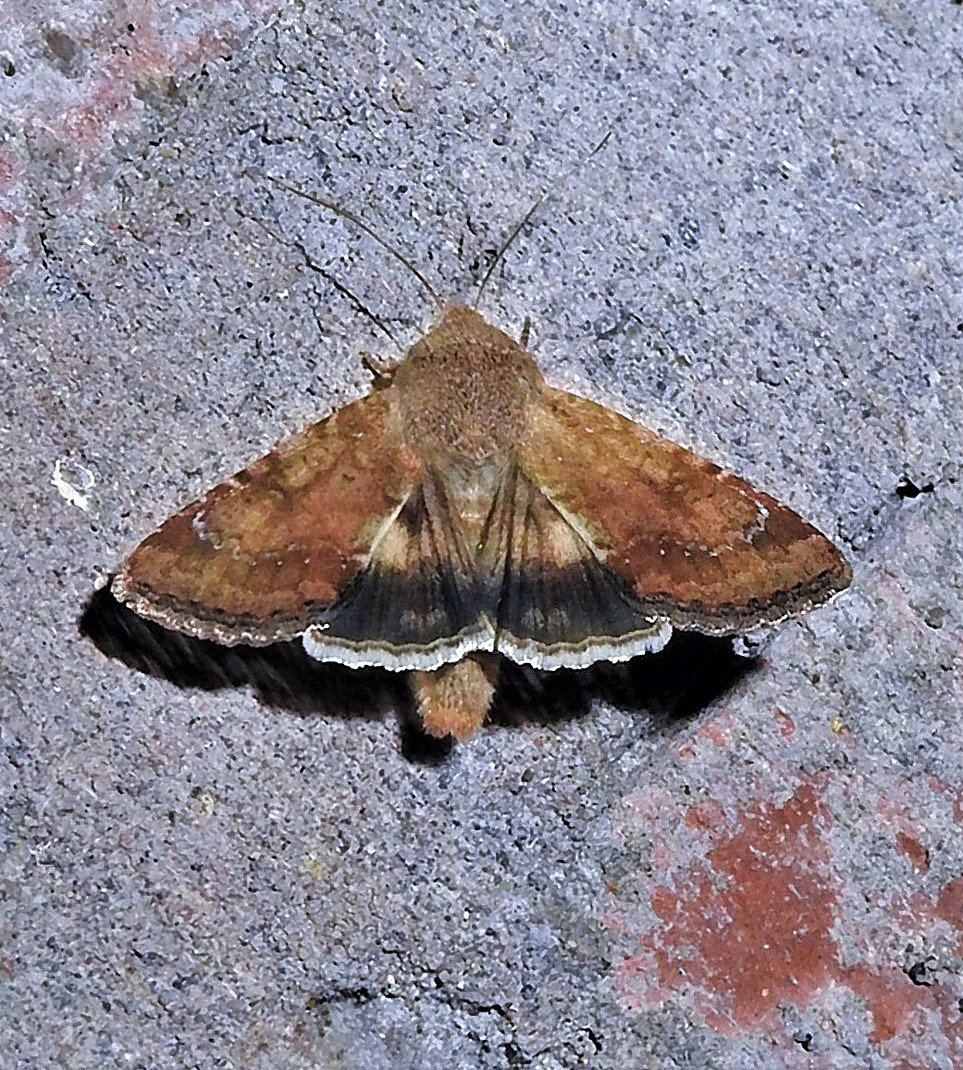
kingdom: Animalia
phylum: Arthropoda
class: Insecta
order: Lepidoptera
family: Noctuidae
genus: Helicoverpa
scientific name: Helicoverpa
